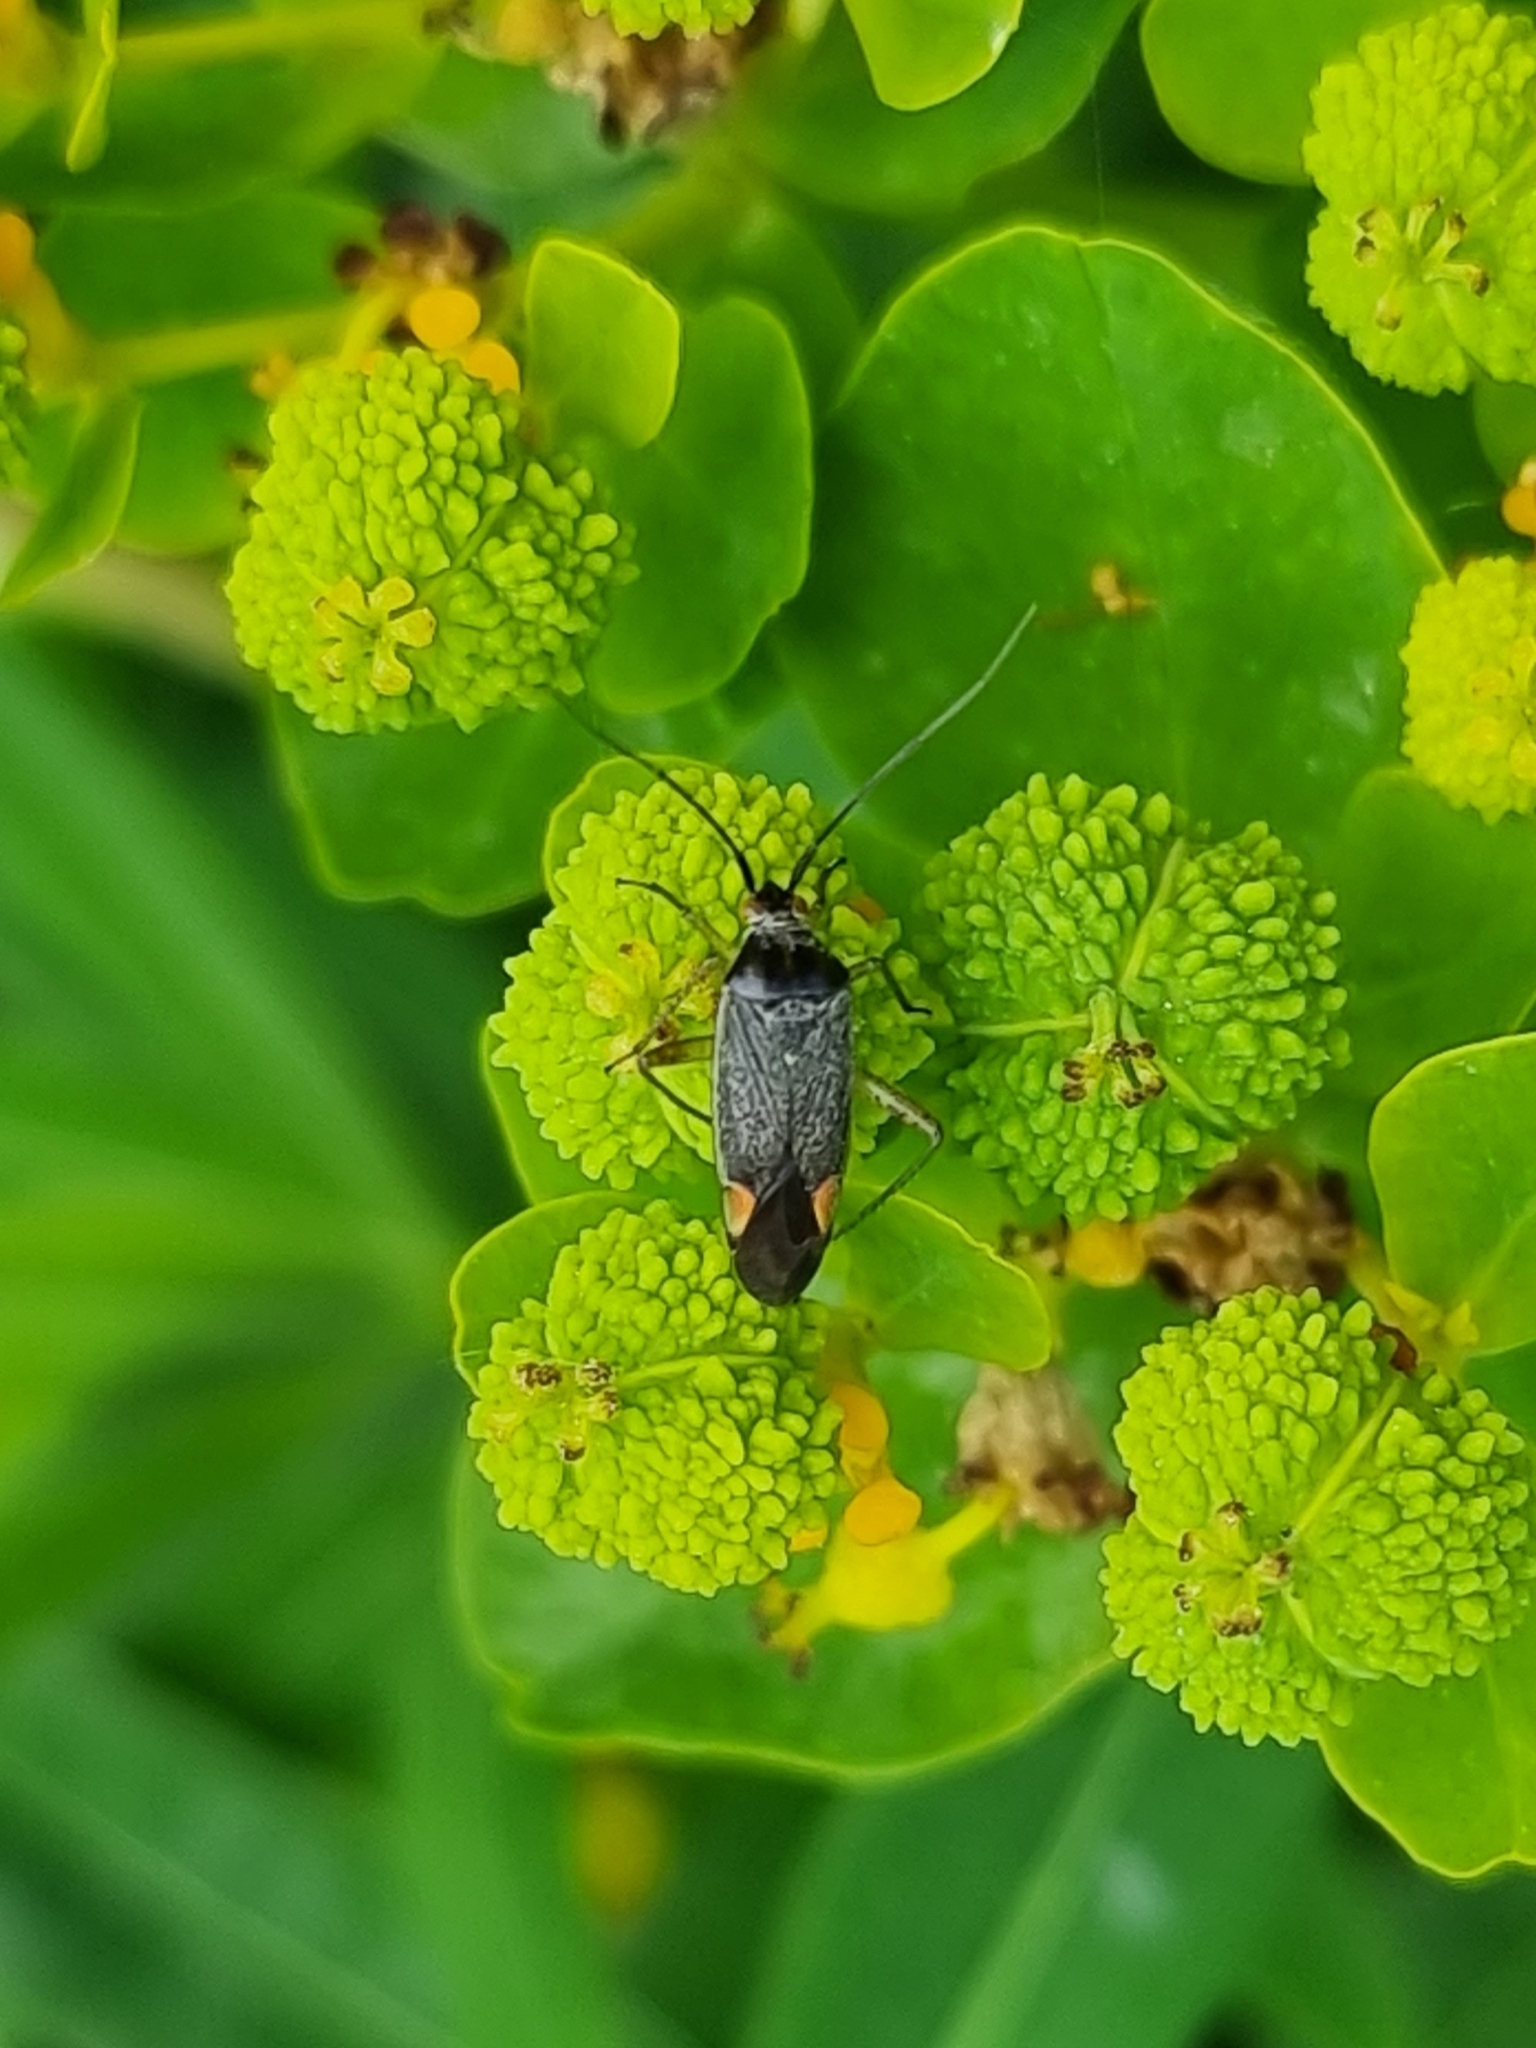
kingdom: Animalia
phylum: Arthropoda
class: Insecta
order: Hemiptera
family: Miridae
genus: Closterotomus
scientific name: Closterotomus trivialis
